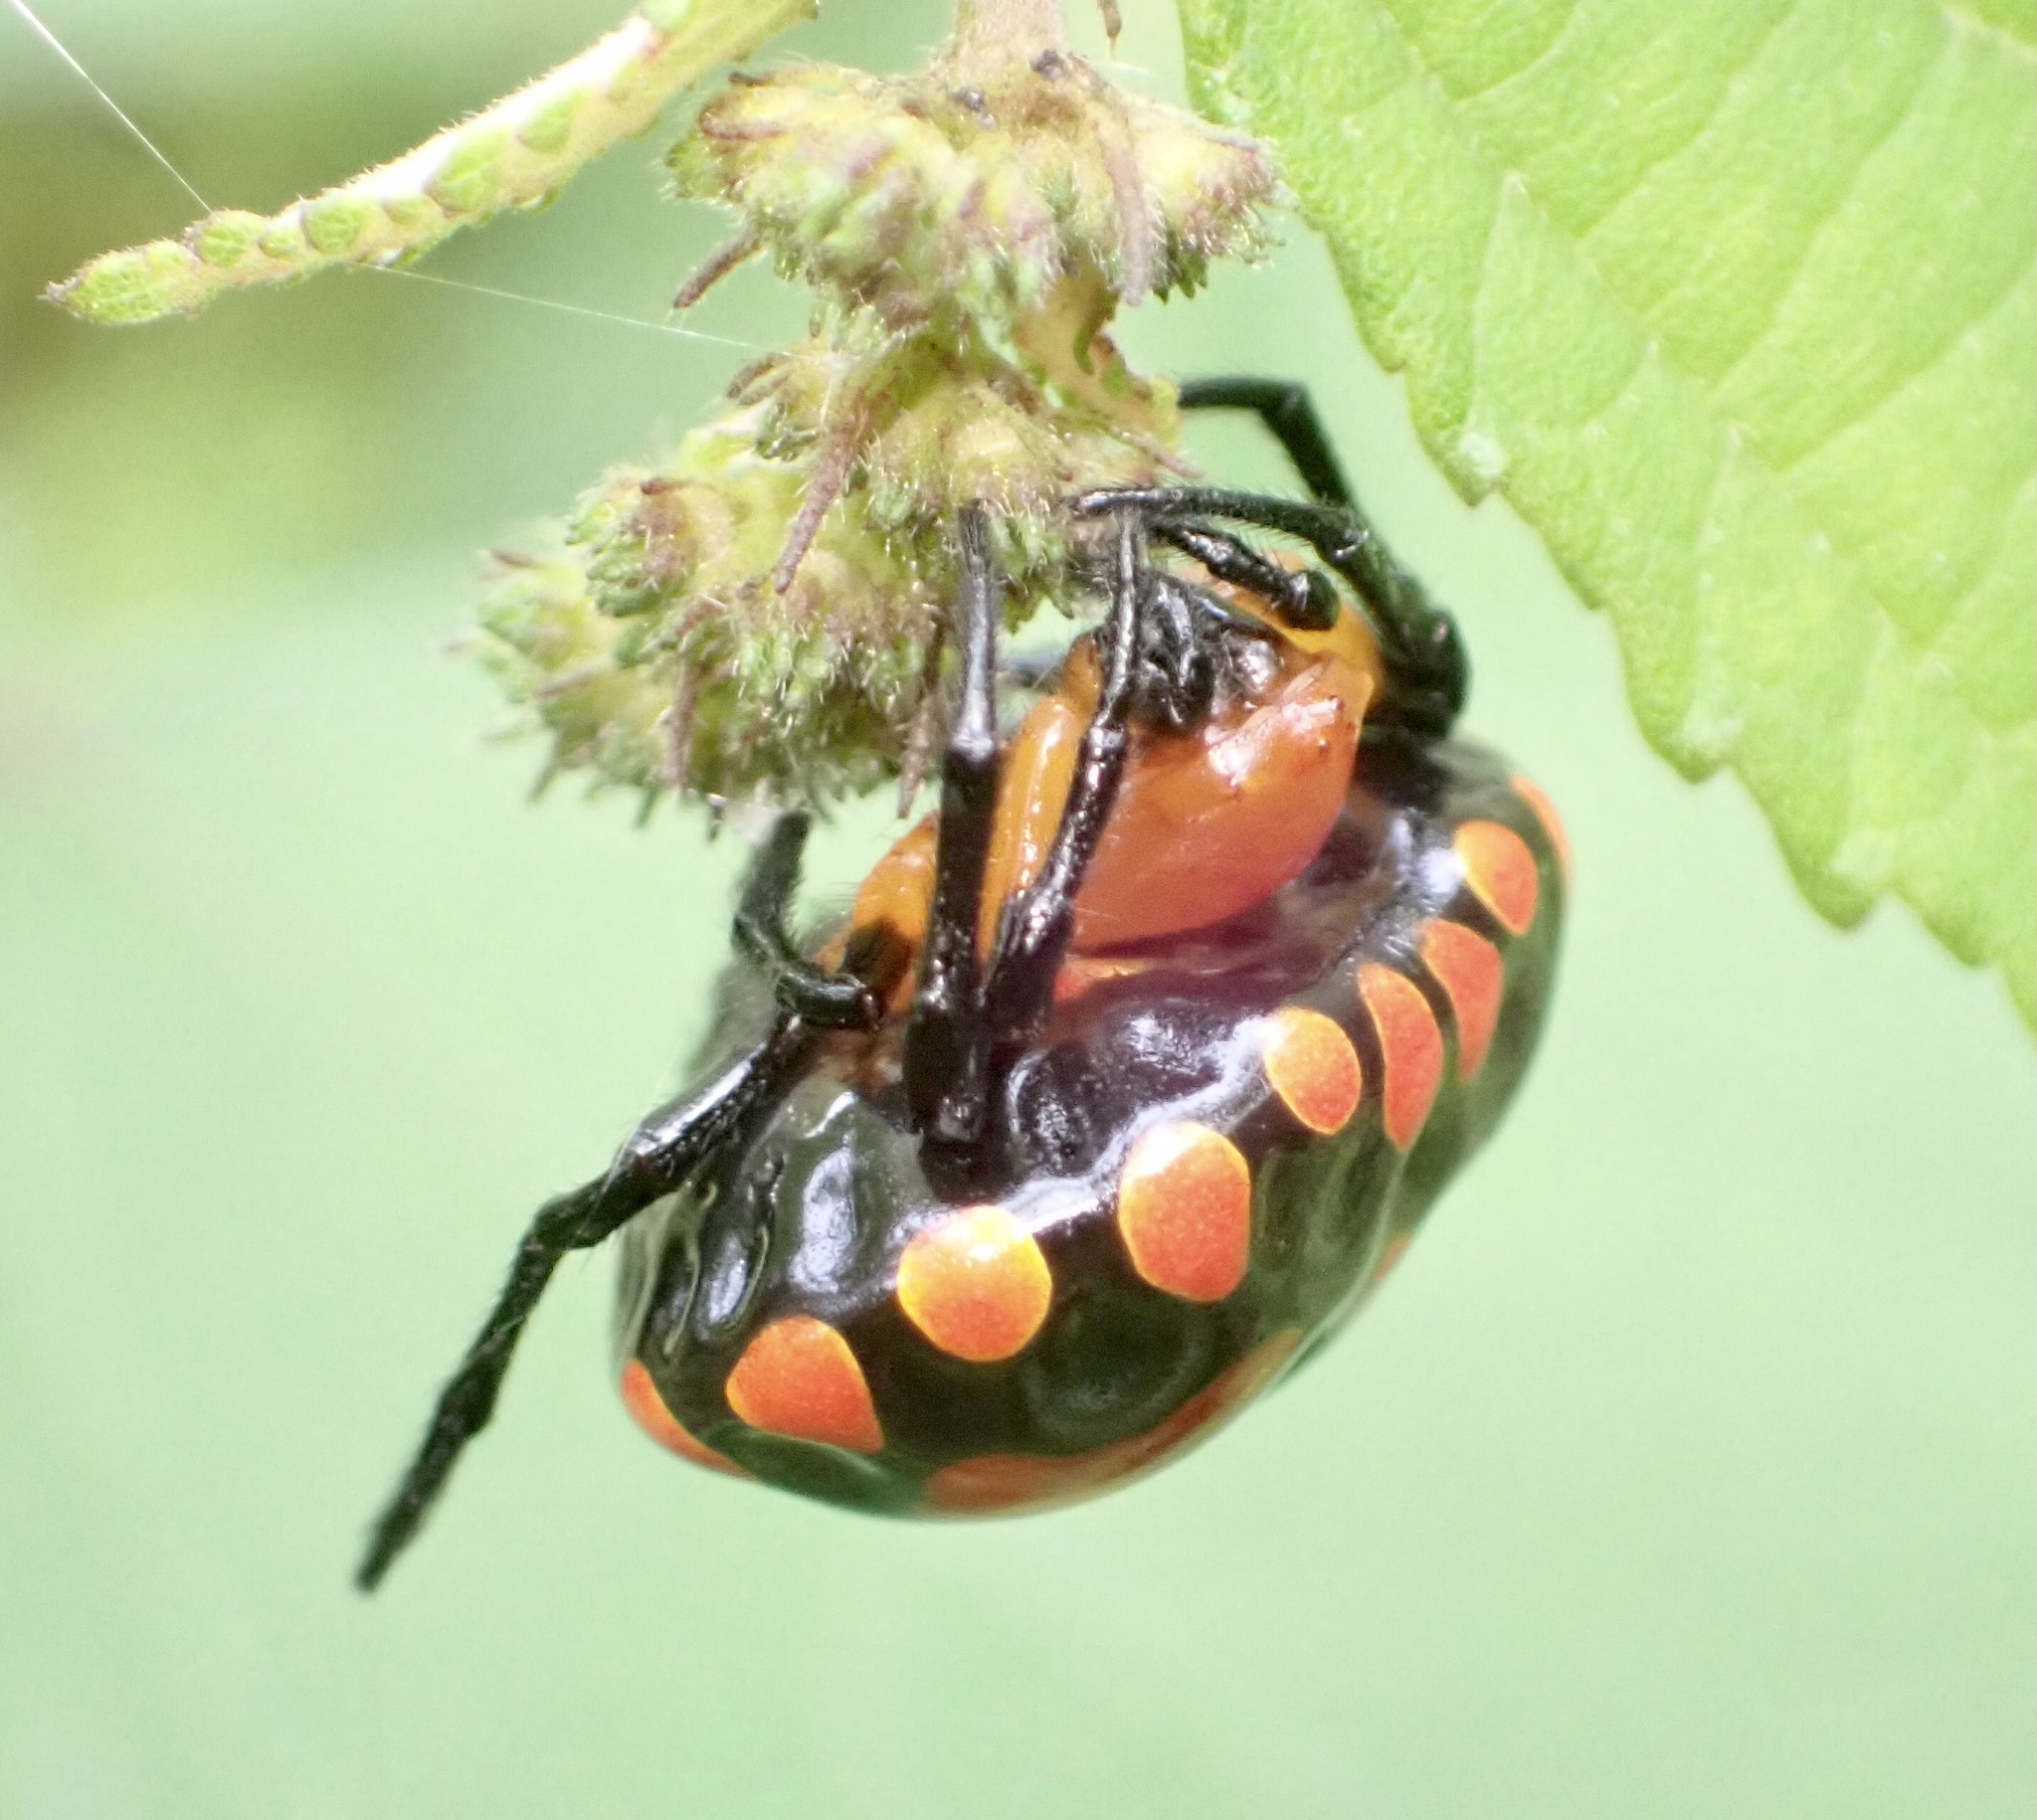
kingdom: Animalia
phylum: Arthropoda
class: Arachnida
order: Araneae
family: Araneidae
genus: Paraplectana
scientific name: Paraplectana thorntoni
